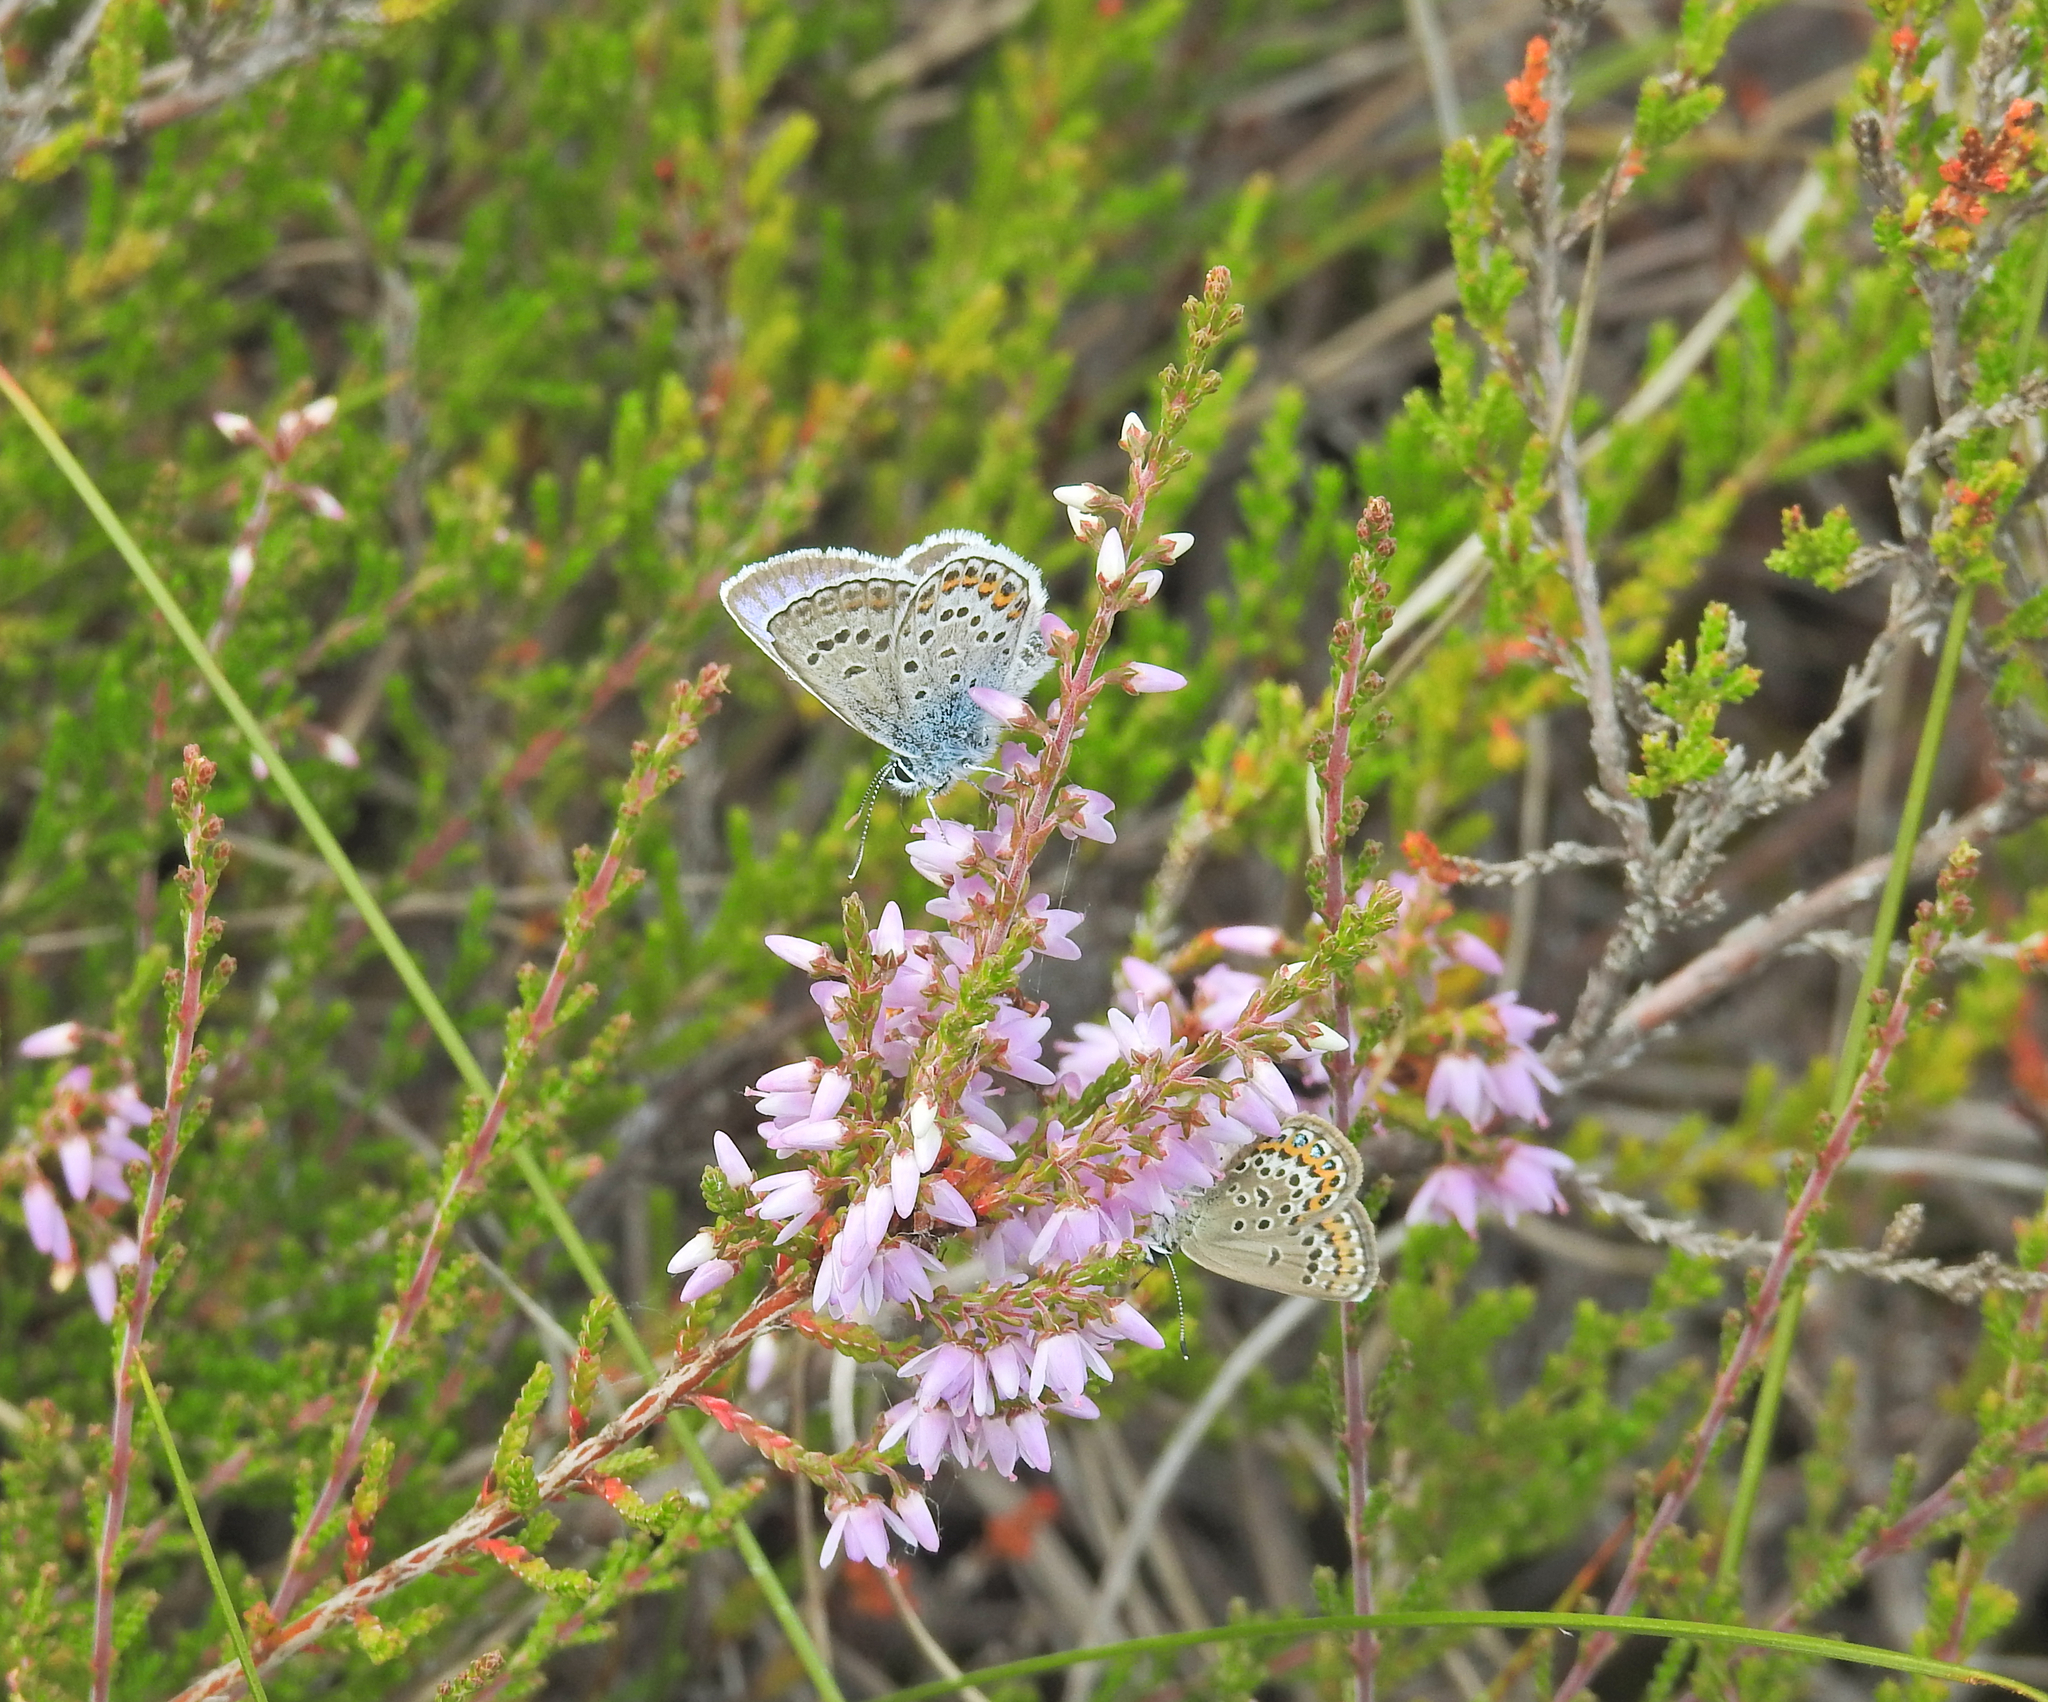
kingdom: Plantae
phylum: Tracheophyta
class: Magnoliopsida
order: Ericales
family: Ericaceae
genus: Calluna
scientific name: Calluna vulgaris
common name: Heather
